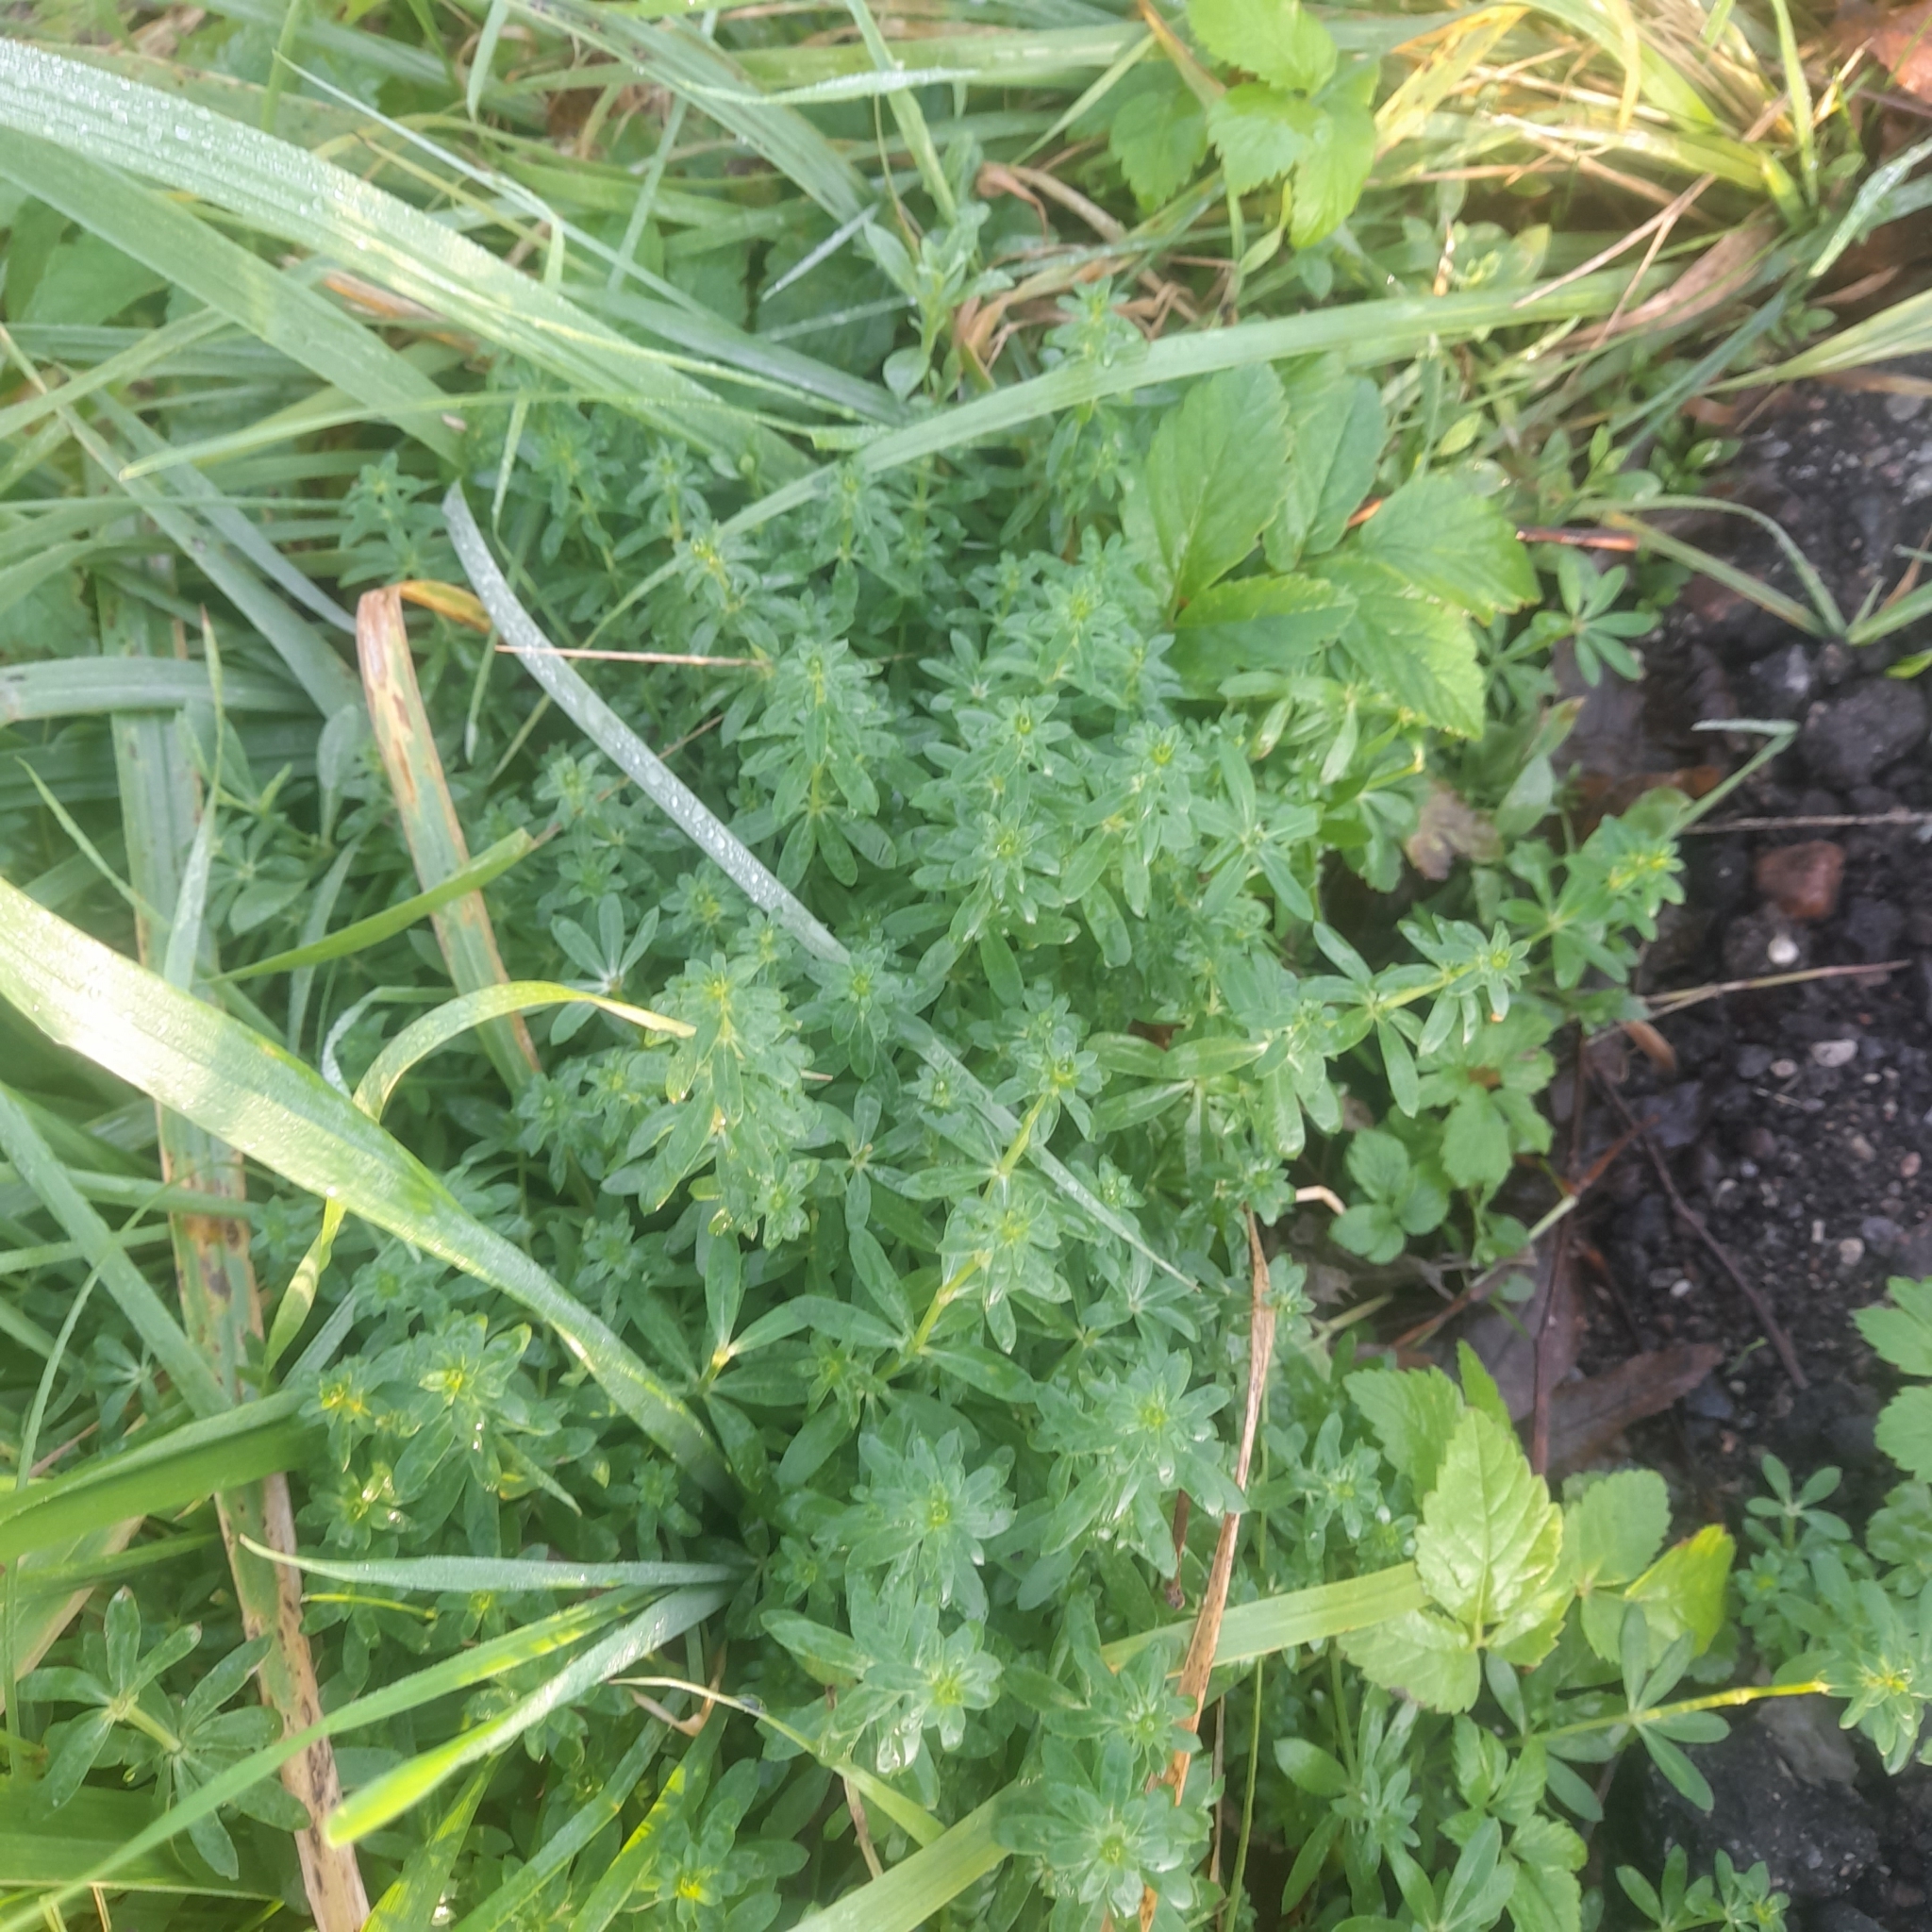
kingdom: Plantae
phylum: Tracheophyta
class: Magnoliopsida
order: Gentianales
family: Rubiaceae
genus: Galium
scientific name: Galium mollugo
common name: Hedge bedstraw
